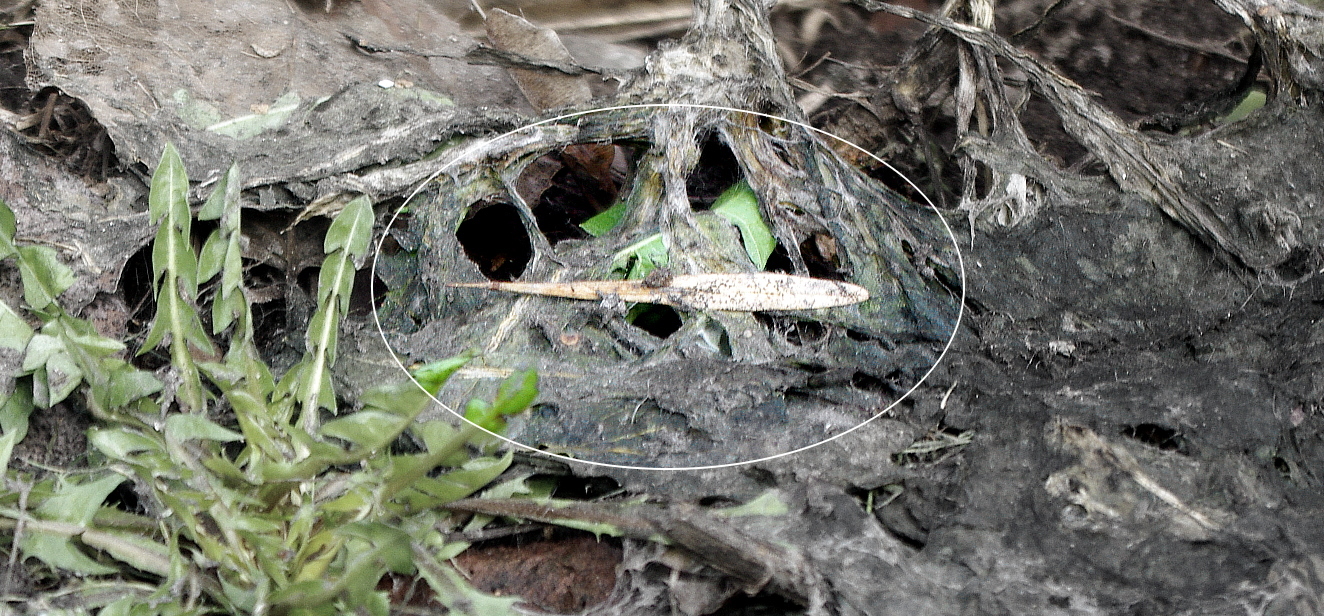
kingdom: Plantae
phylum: Tracheophyta
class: Magnoliopsida
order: Lamiales
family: Oleaceae
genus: Fraxinus
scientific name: Fraxinus pennsylvanica
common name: Green ash
